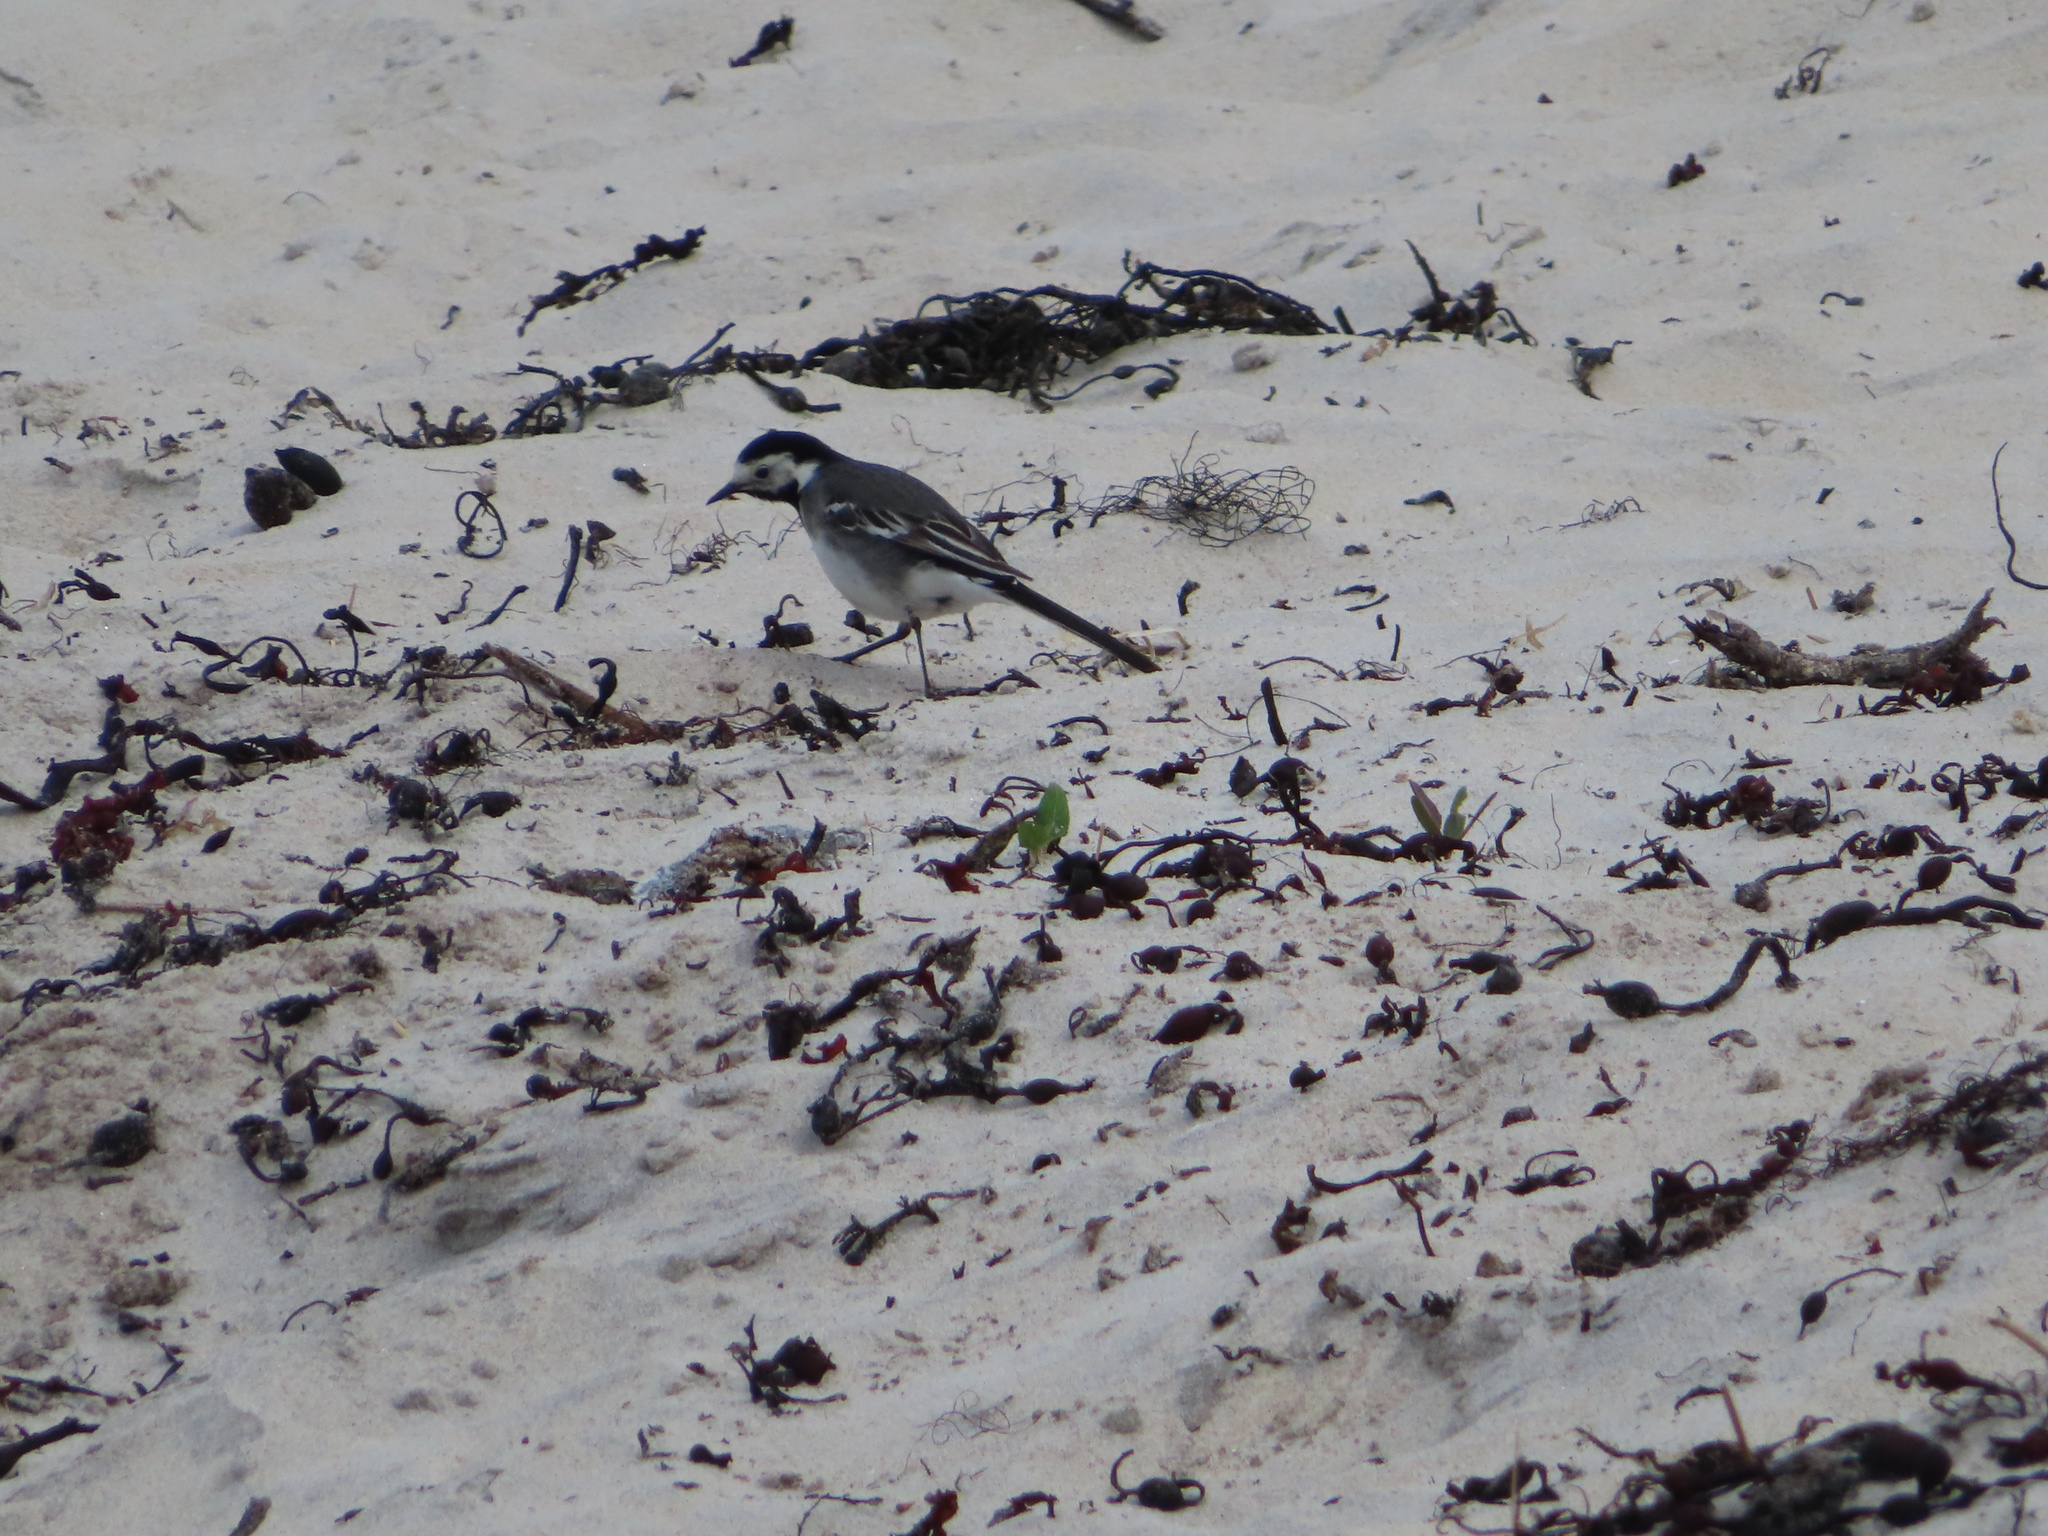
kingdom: Animalia
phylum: Chordata
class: Aves
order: Passeriformes
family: Motacillidae
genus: Motacilla
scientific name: Motacilla alba
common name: White wagtail
